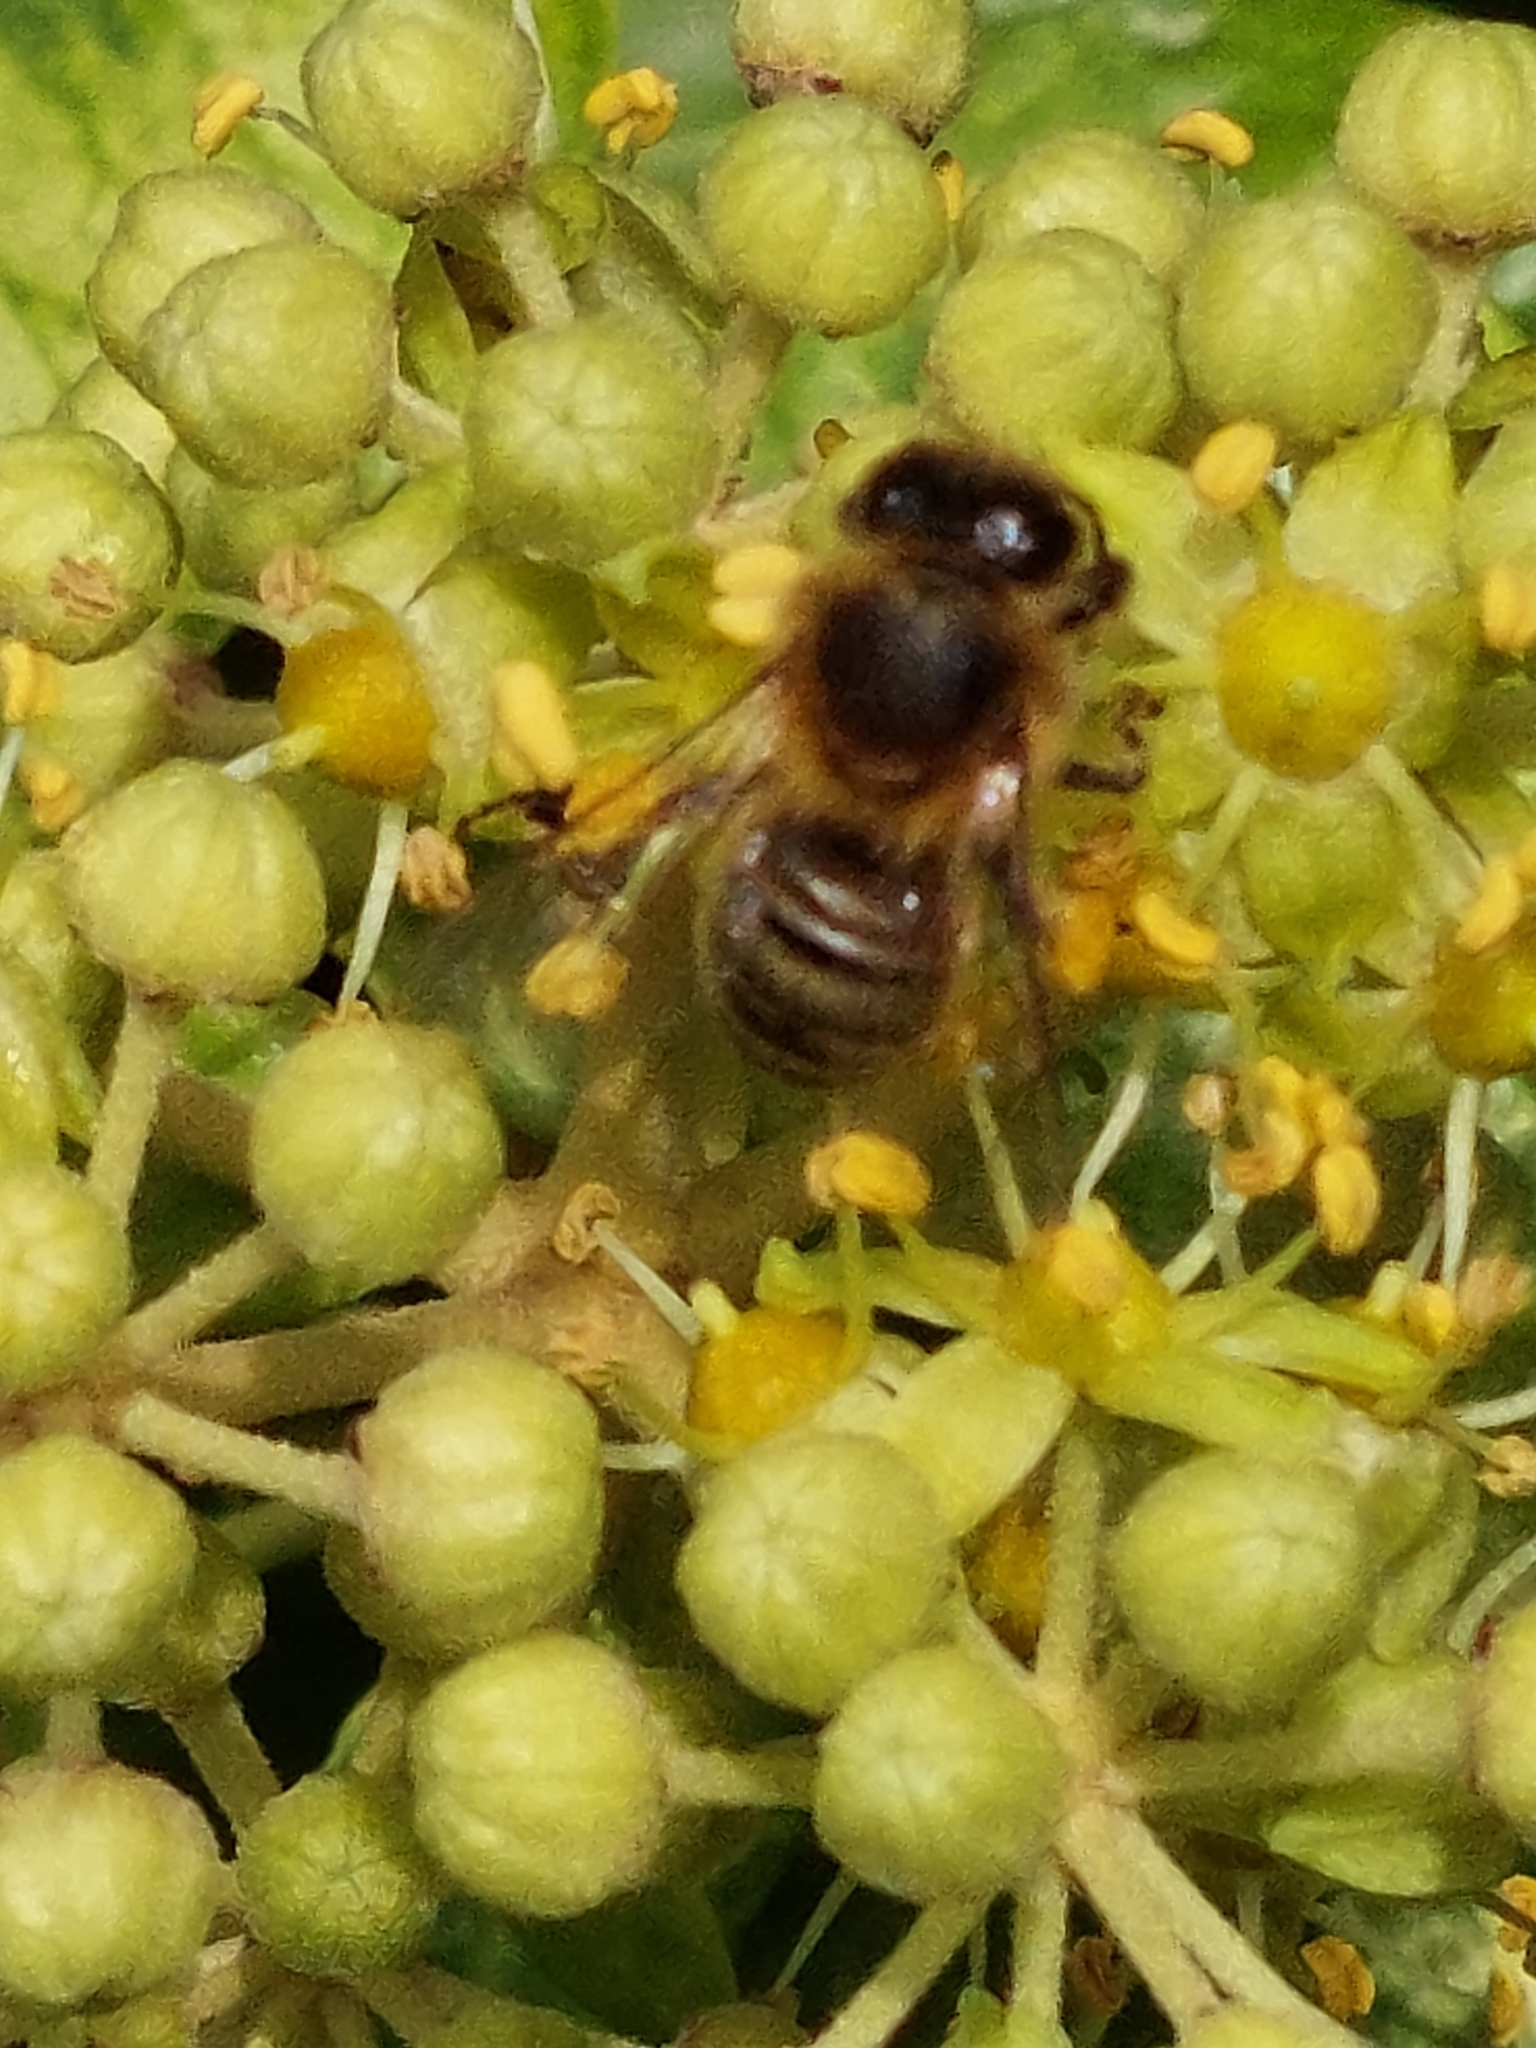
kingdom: Animalia
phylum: Arthropoda
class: Insecta
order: Hymenoptera
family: Apidae
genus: Apis
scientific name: Apis mellifera
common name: Honey bee
